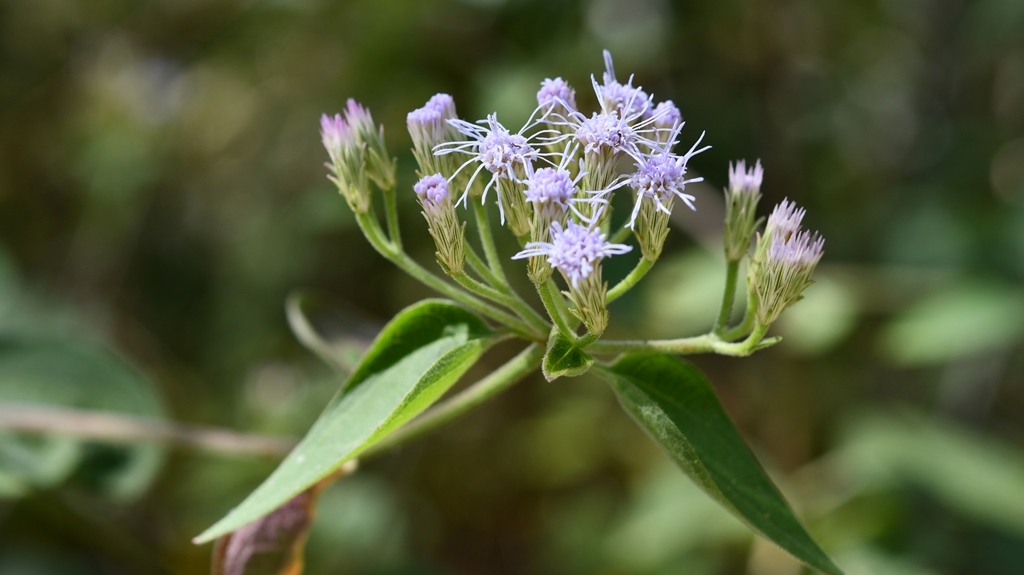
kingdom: Plantae
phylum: Tracheophyta
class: Magnoliopsida
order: Asterales
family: Asteraceae
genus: Chromolaena
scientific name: Chromolaena odorata
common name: Siamweed
